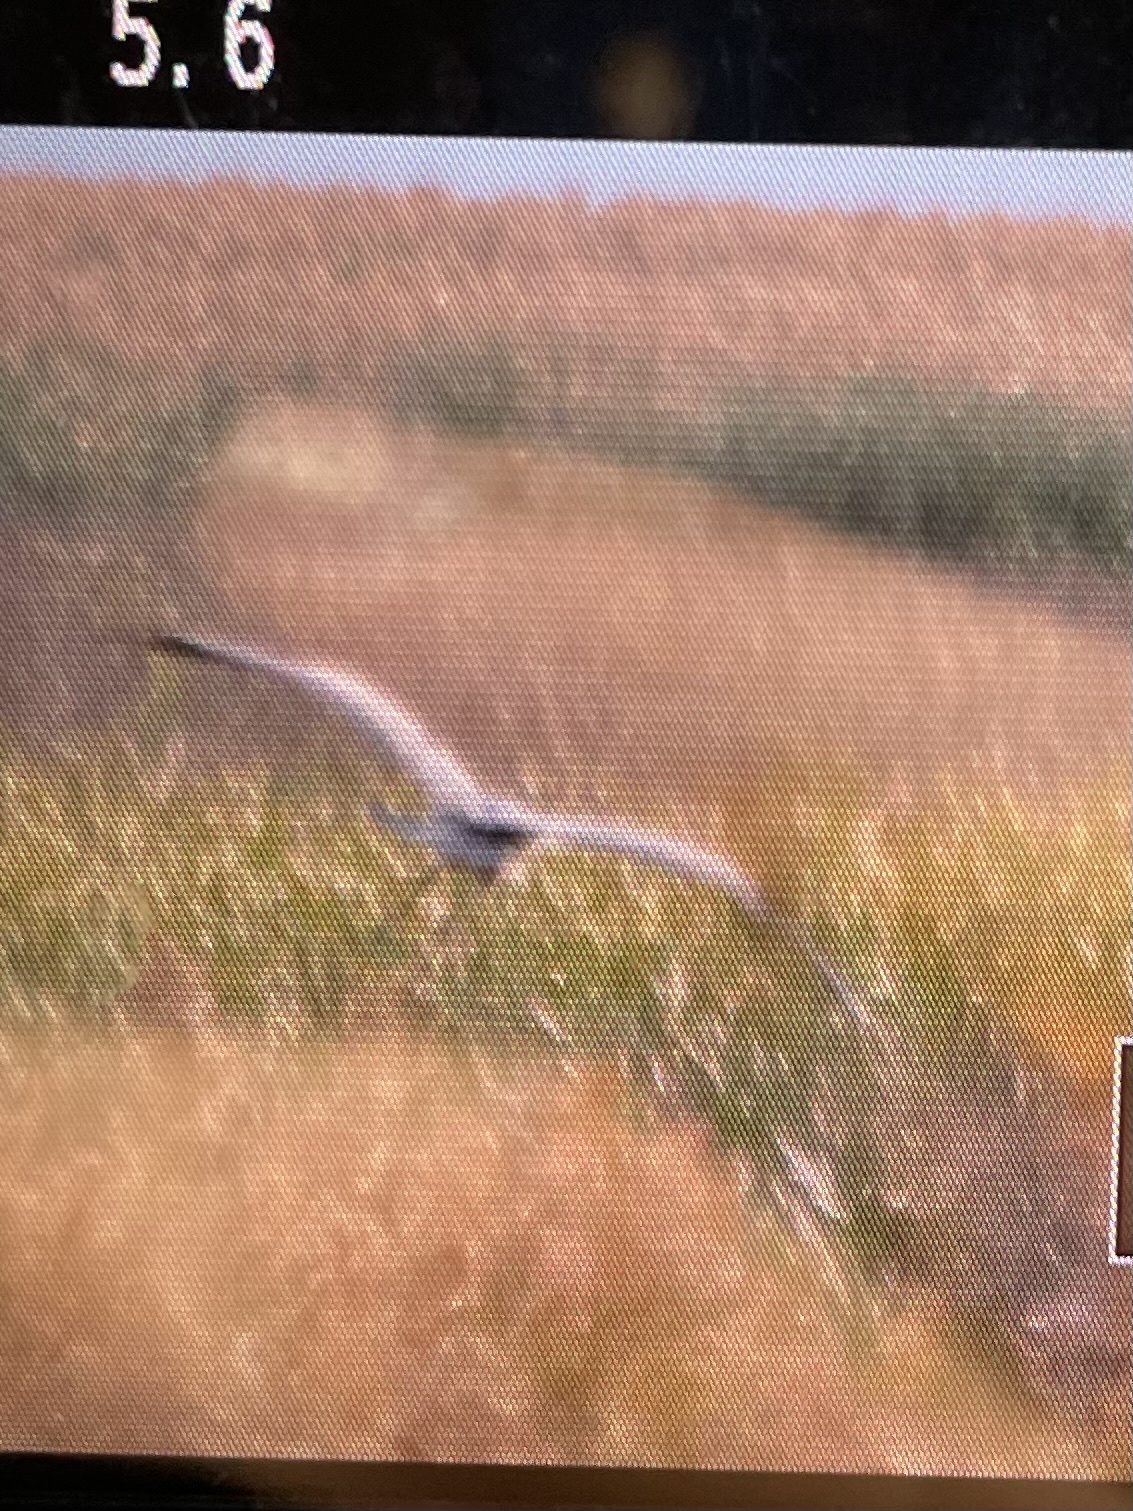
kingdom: Animalia
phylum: Chordata
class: Aves
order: Pelecaniformes
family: Ardeidae
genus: Ardea
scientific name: Ardea cinerea
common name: Grey heron
